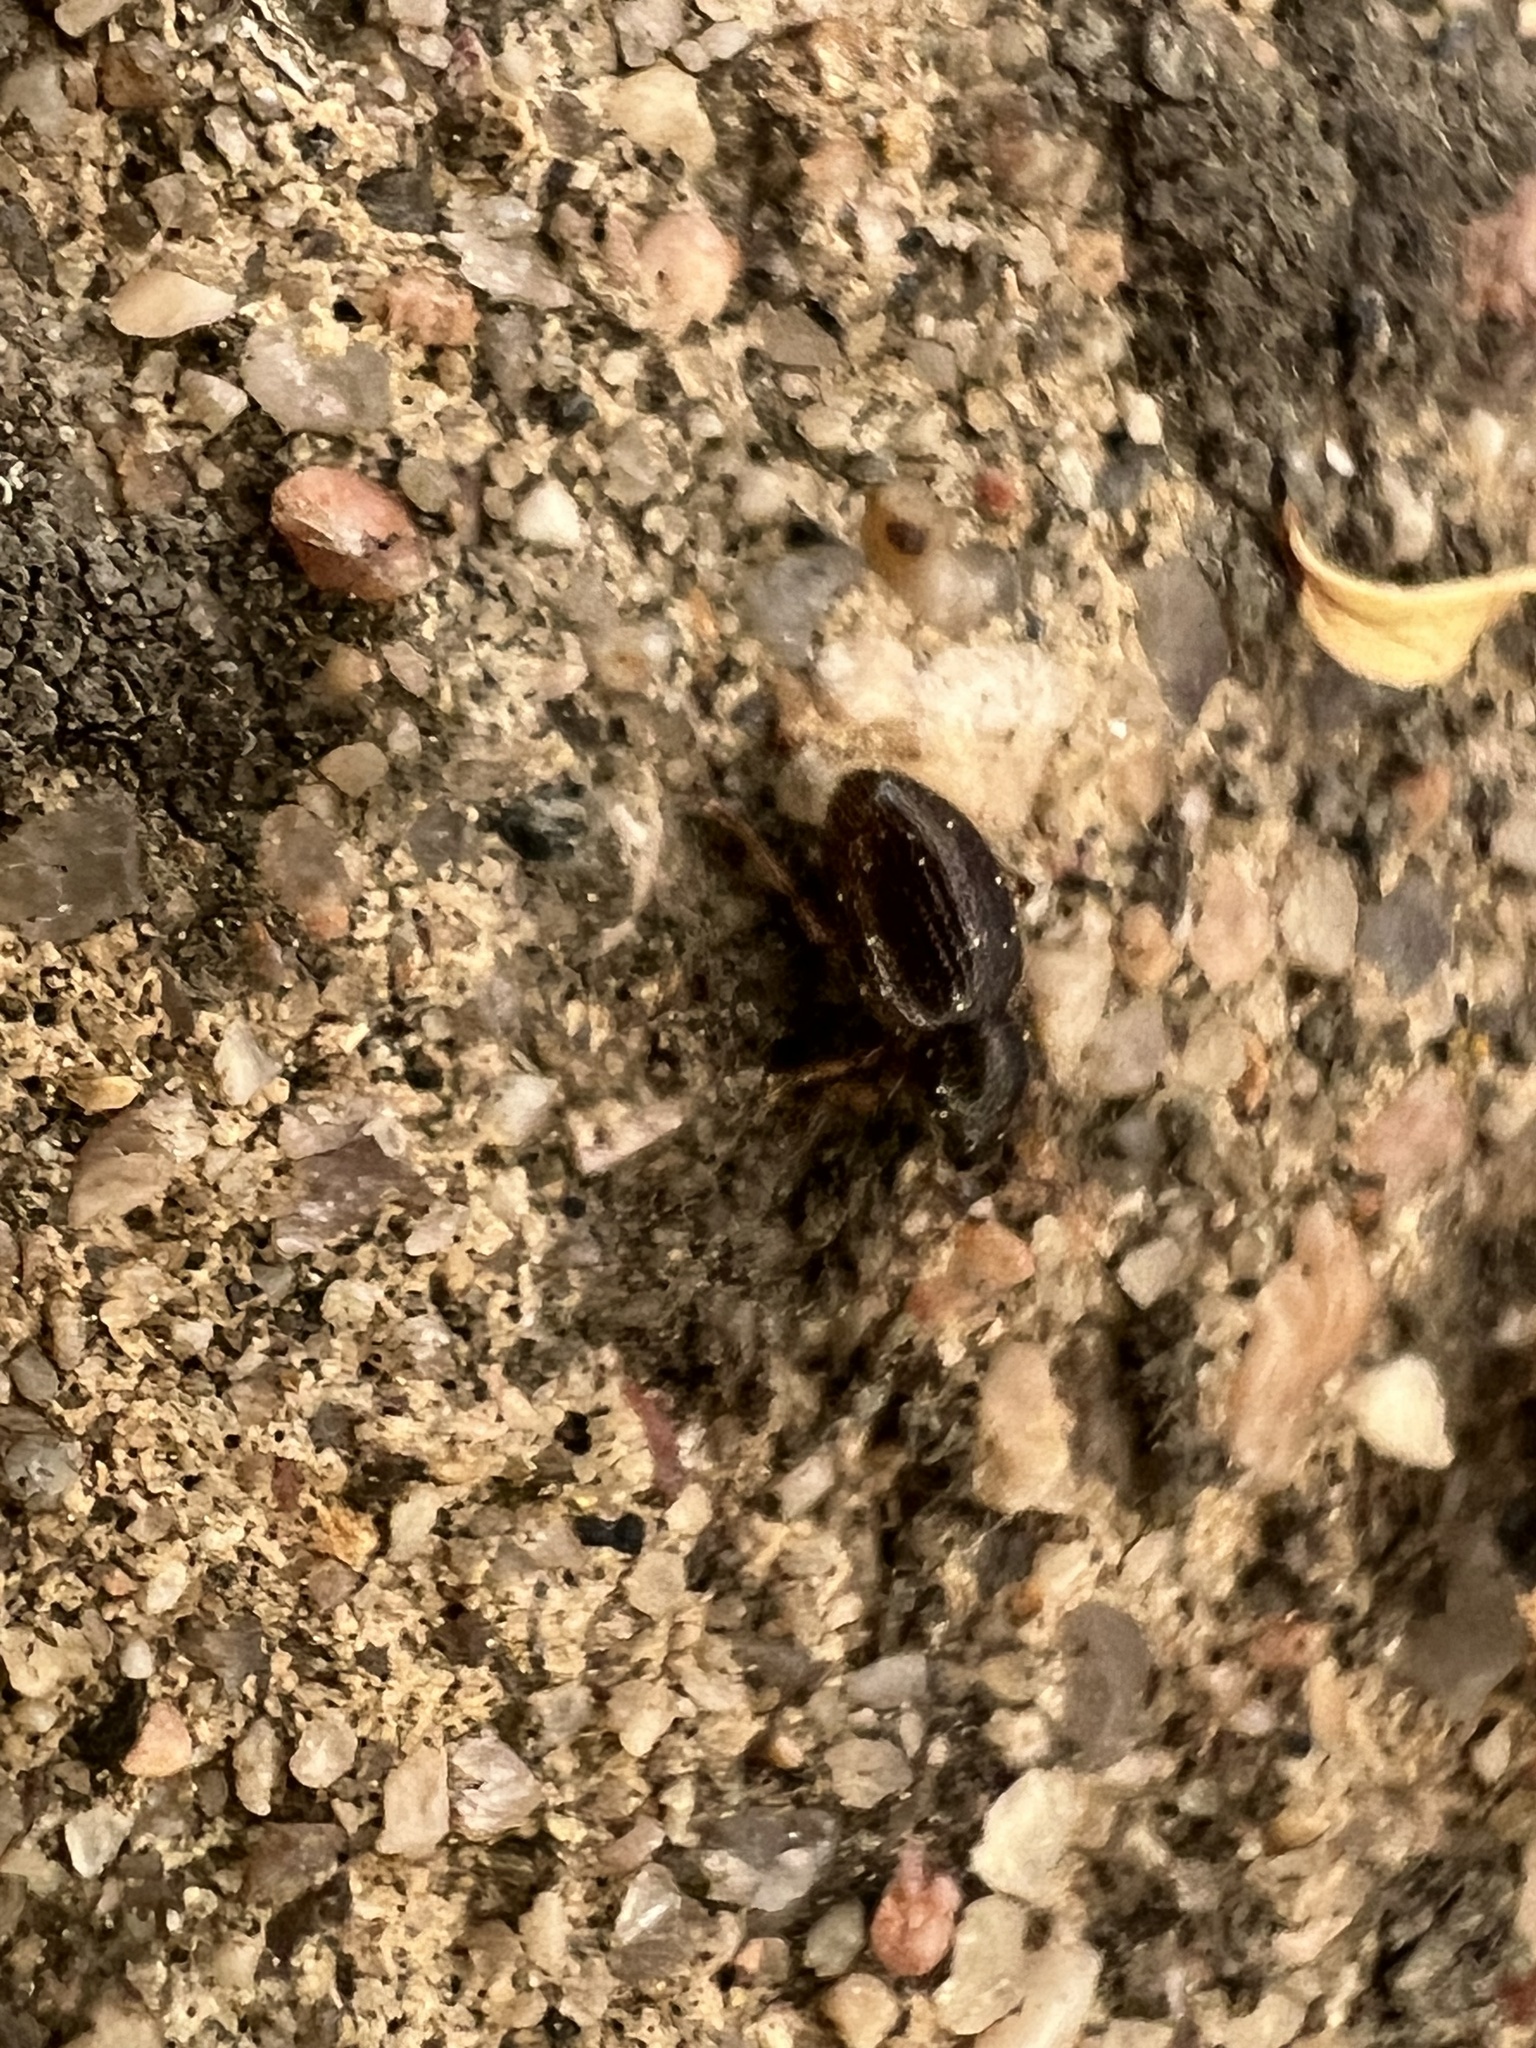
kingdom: Animalia
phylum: Arthropoda
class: Insecta
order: Coleoptera
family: Curculionidae
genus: Exomias
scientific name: Exomias pellucidus
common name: Hairy spider weevil
